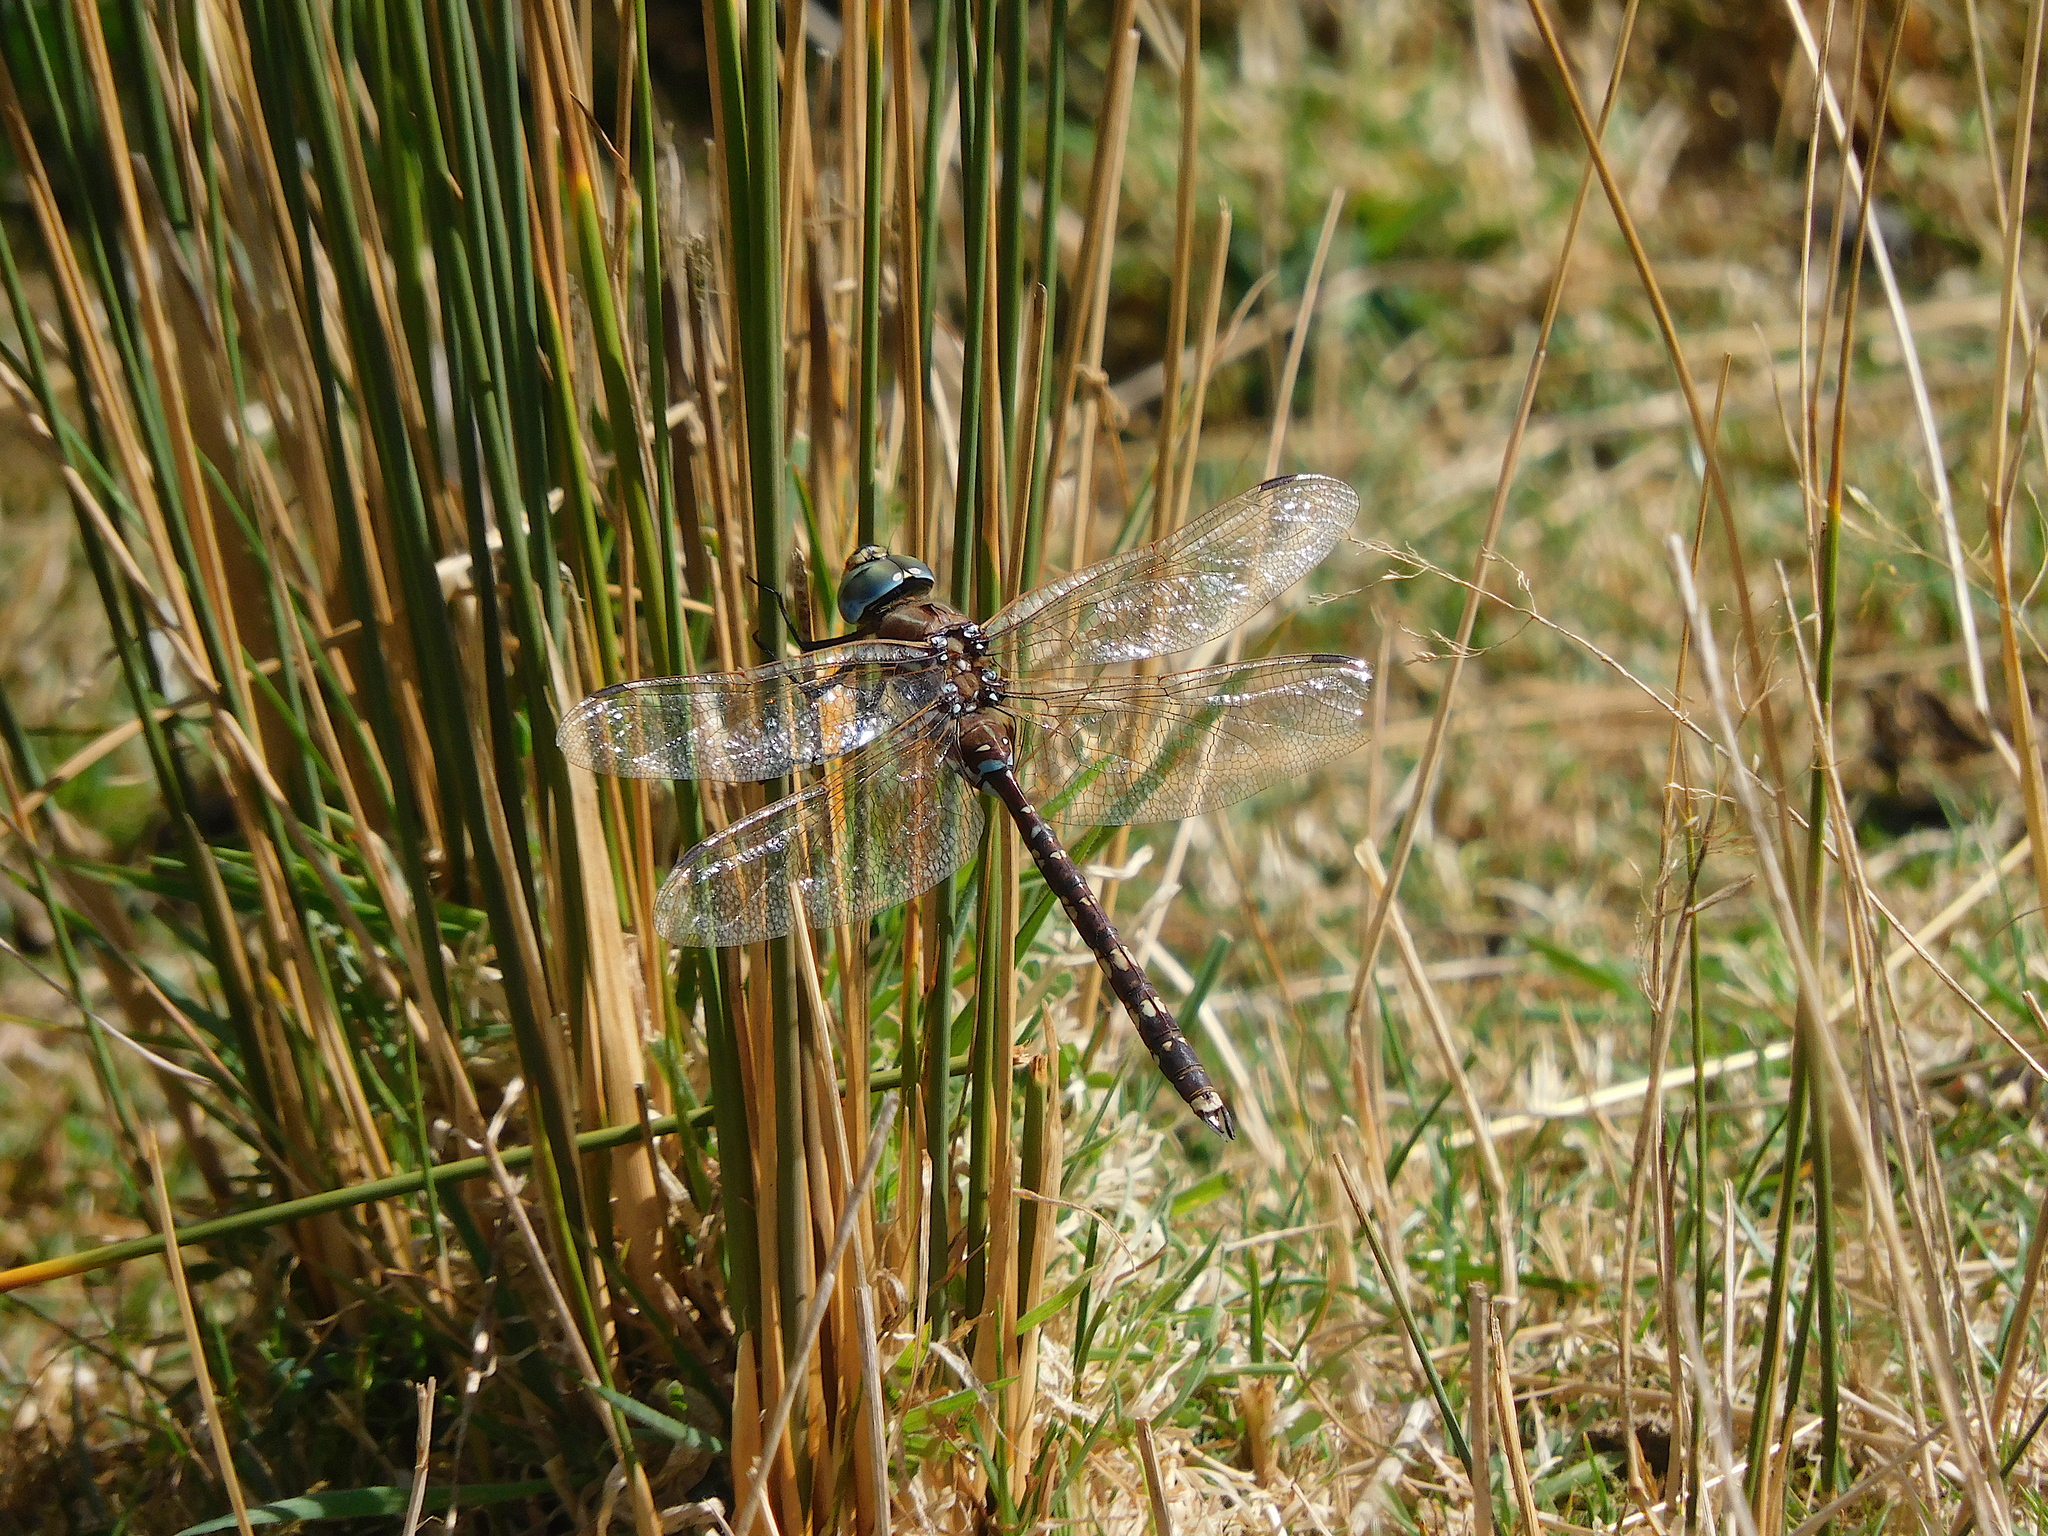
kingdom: Animalia
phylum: Arthropoda
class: Insecta
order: Odonata
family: Aeshnidae
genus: Aeshna
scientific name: Aeshna brevistyla
